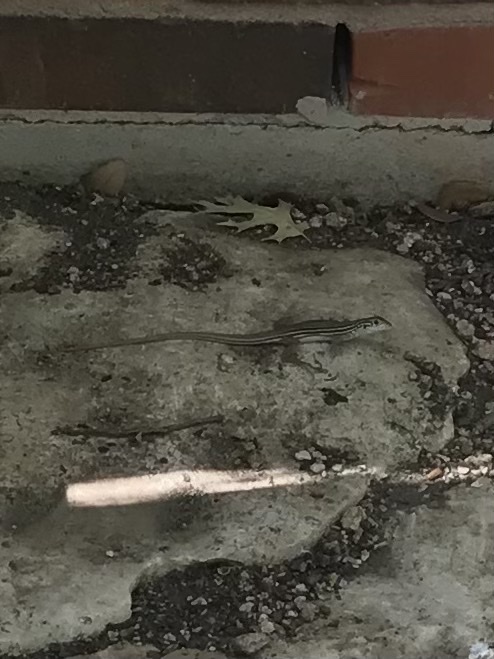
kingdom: Animalia
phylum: Chordata
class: Squamata
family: Teiidae
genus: Aspidoscelis
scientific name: Aspidoscelis gularis
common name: Eastern spotted whiptail
